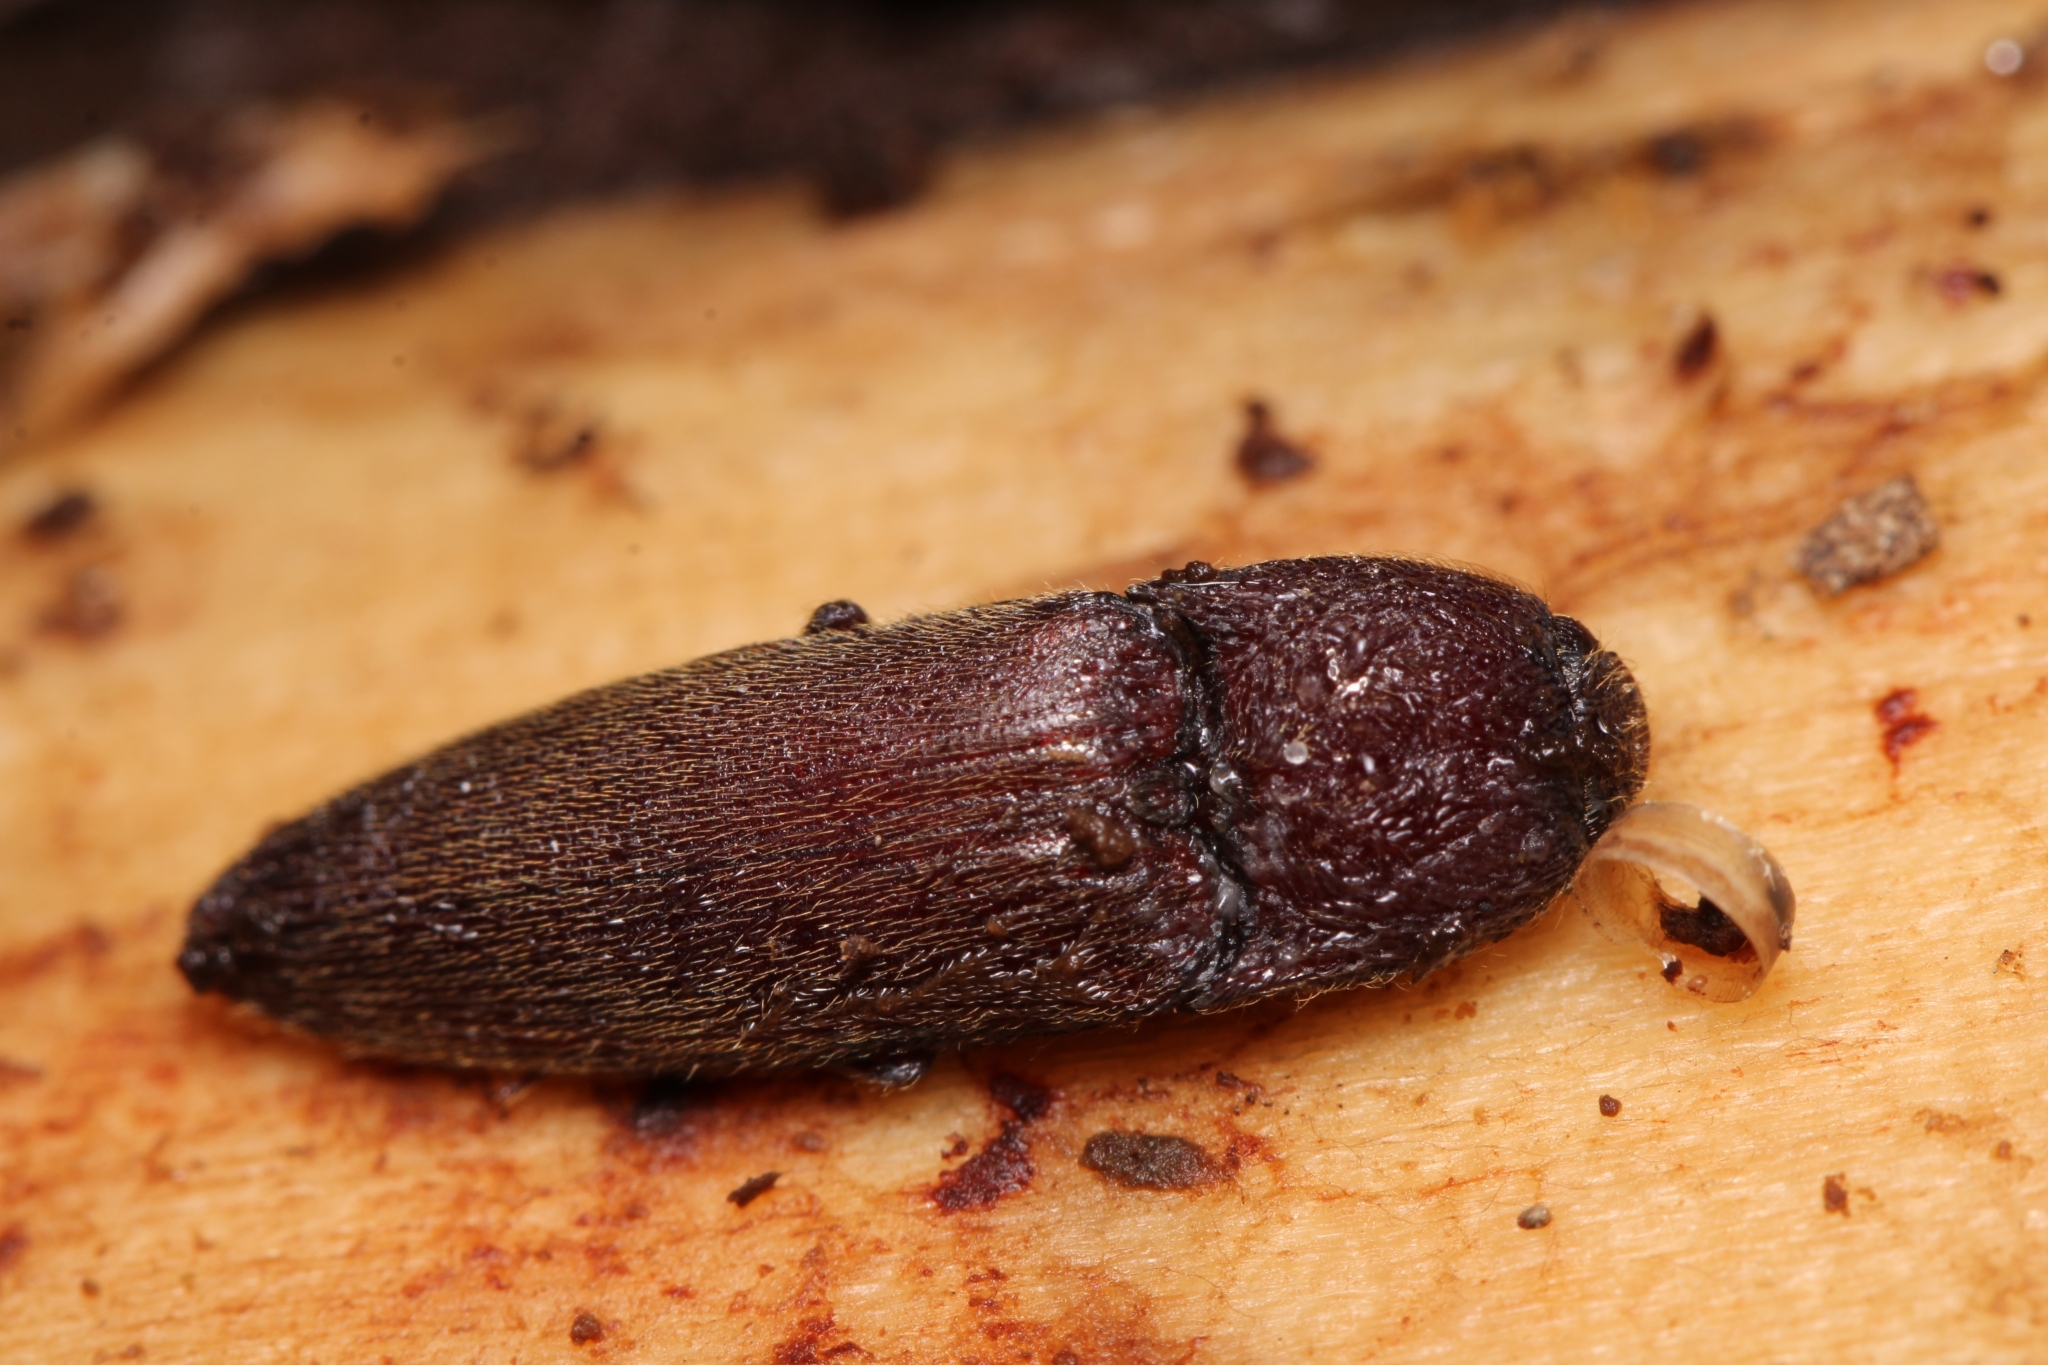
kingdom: Animalia
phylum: Arthropoda
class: Insecta
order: Coleoptera
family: Elateridae
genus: Melanotus
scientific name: Melanotus
